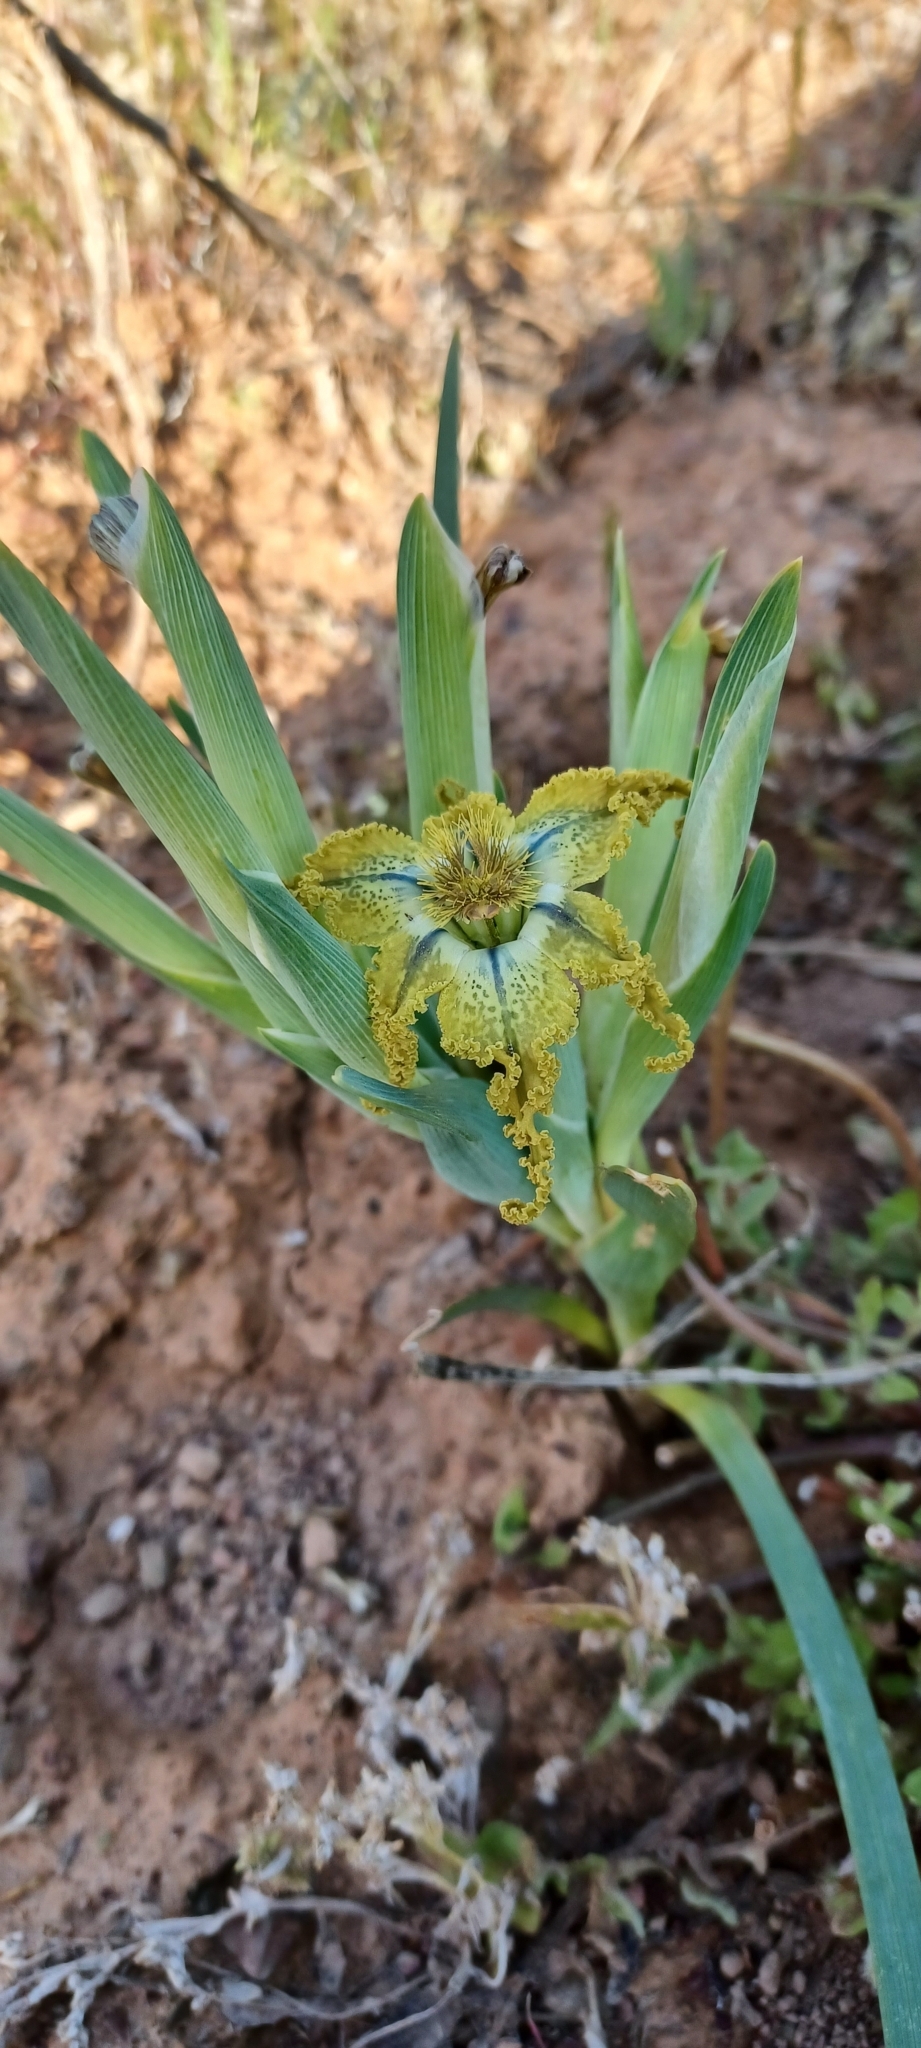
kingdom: Plantae
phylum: Tracheophyta
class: Liliopsida
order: Asparagales
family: Iridaceae
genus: Ferraria
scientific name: Ferraria variabilis
